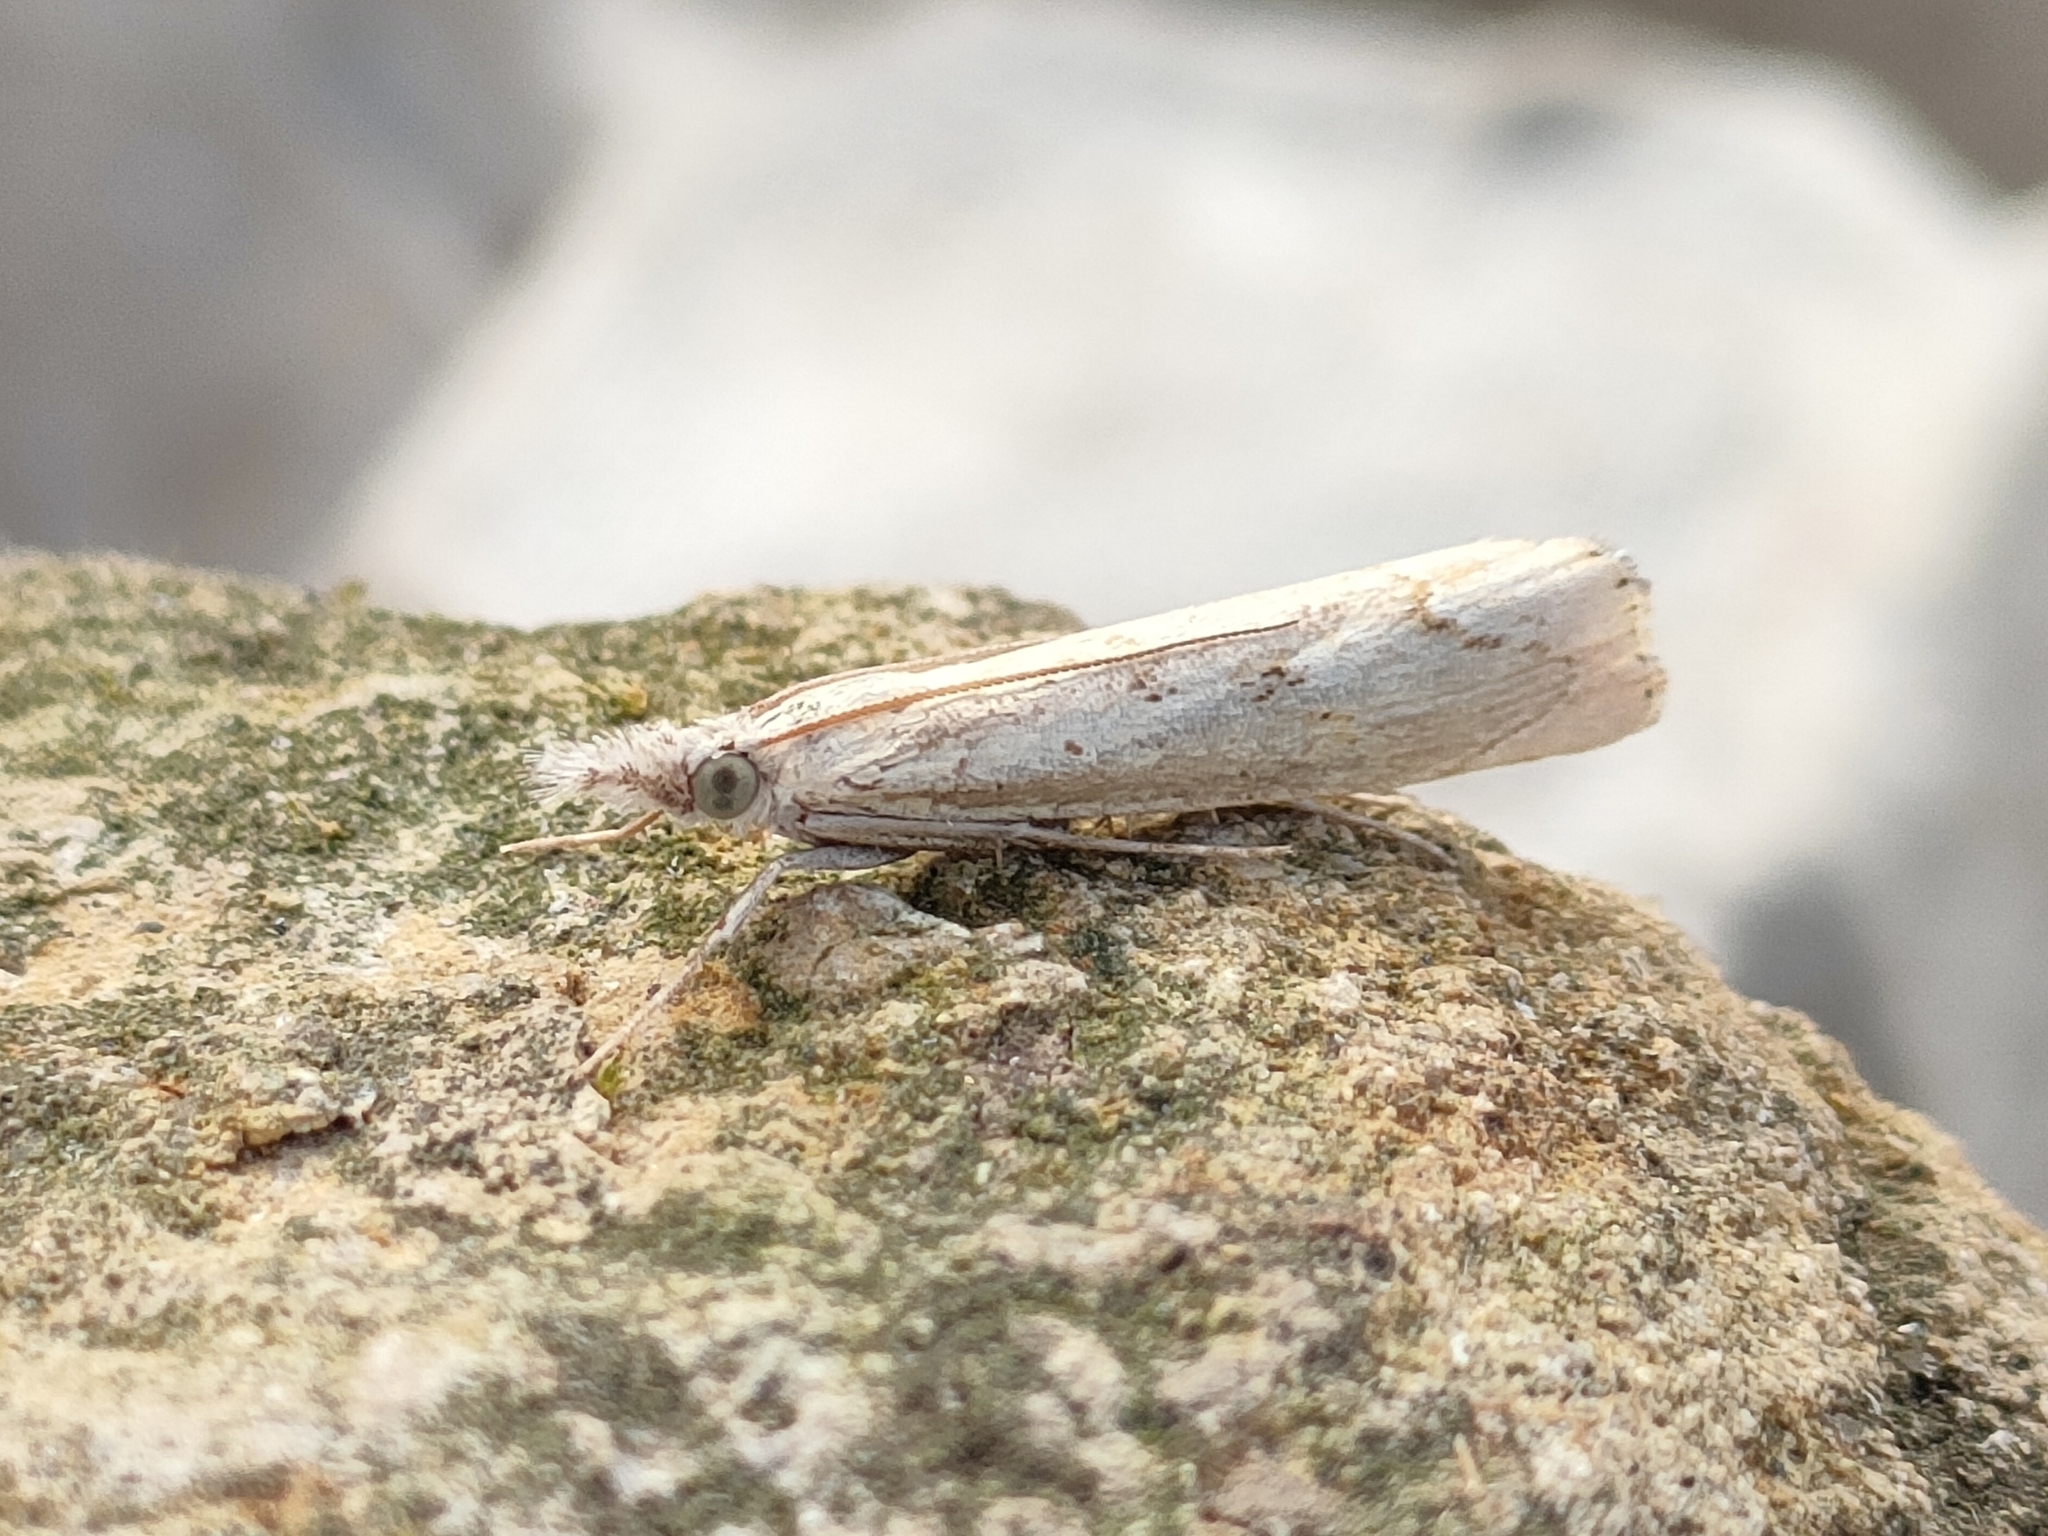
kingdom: Animalia
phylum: Arthropoda
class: Insecta
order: Lepidoptera
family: Crambidae
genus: Agriphila
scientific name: Agriphila geniculea
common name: Elbow-stripe grass-veneer
